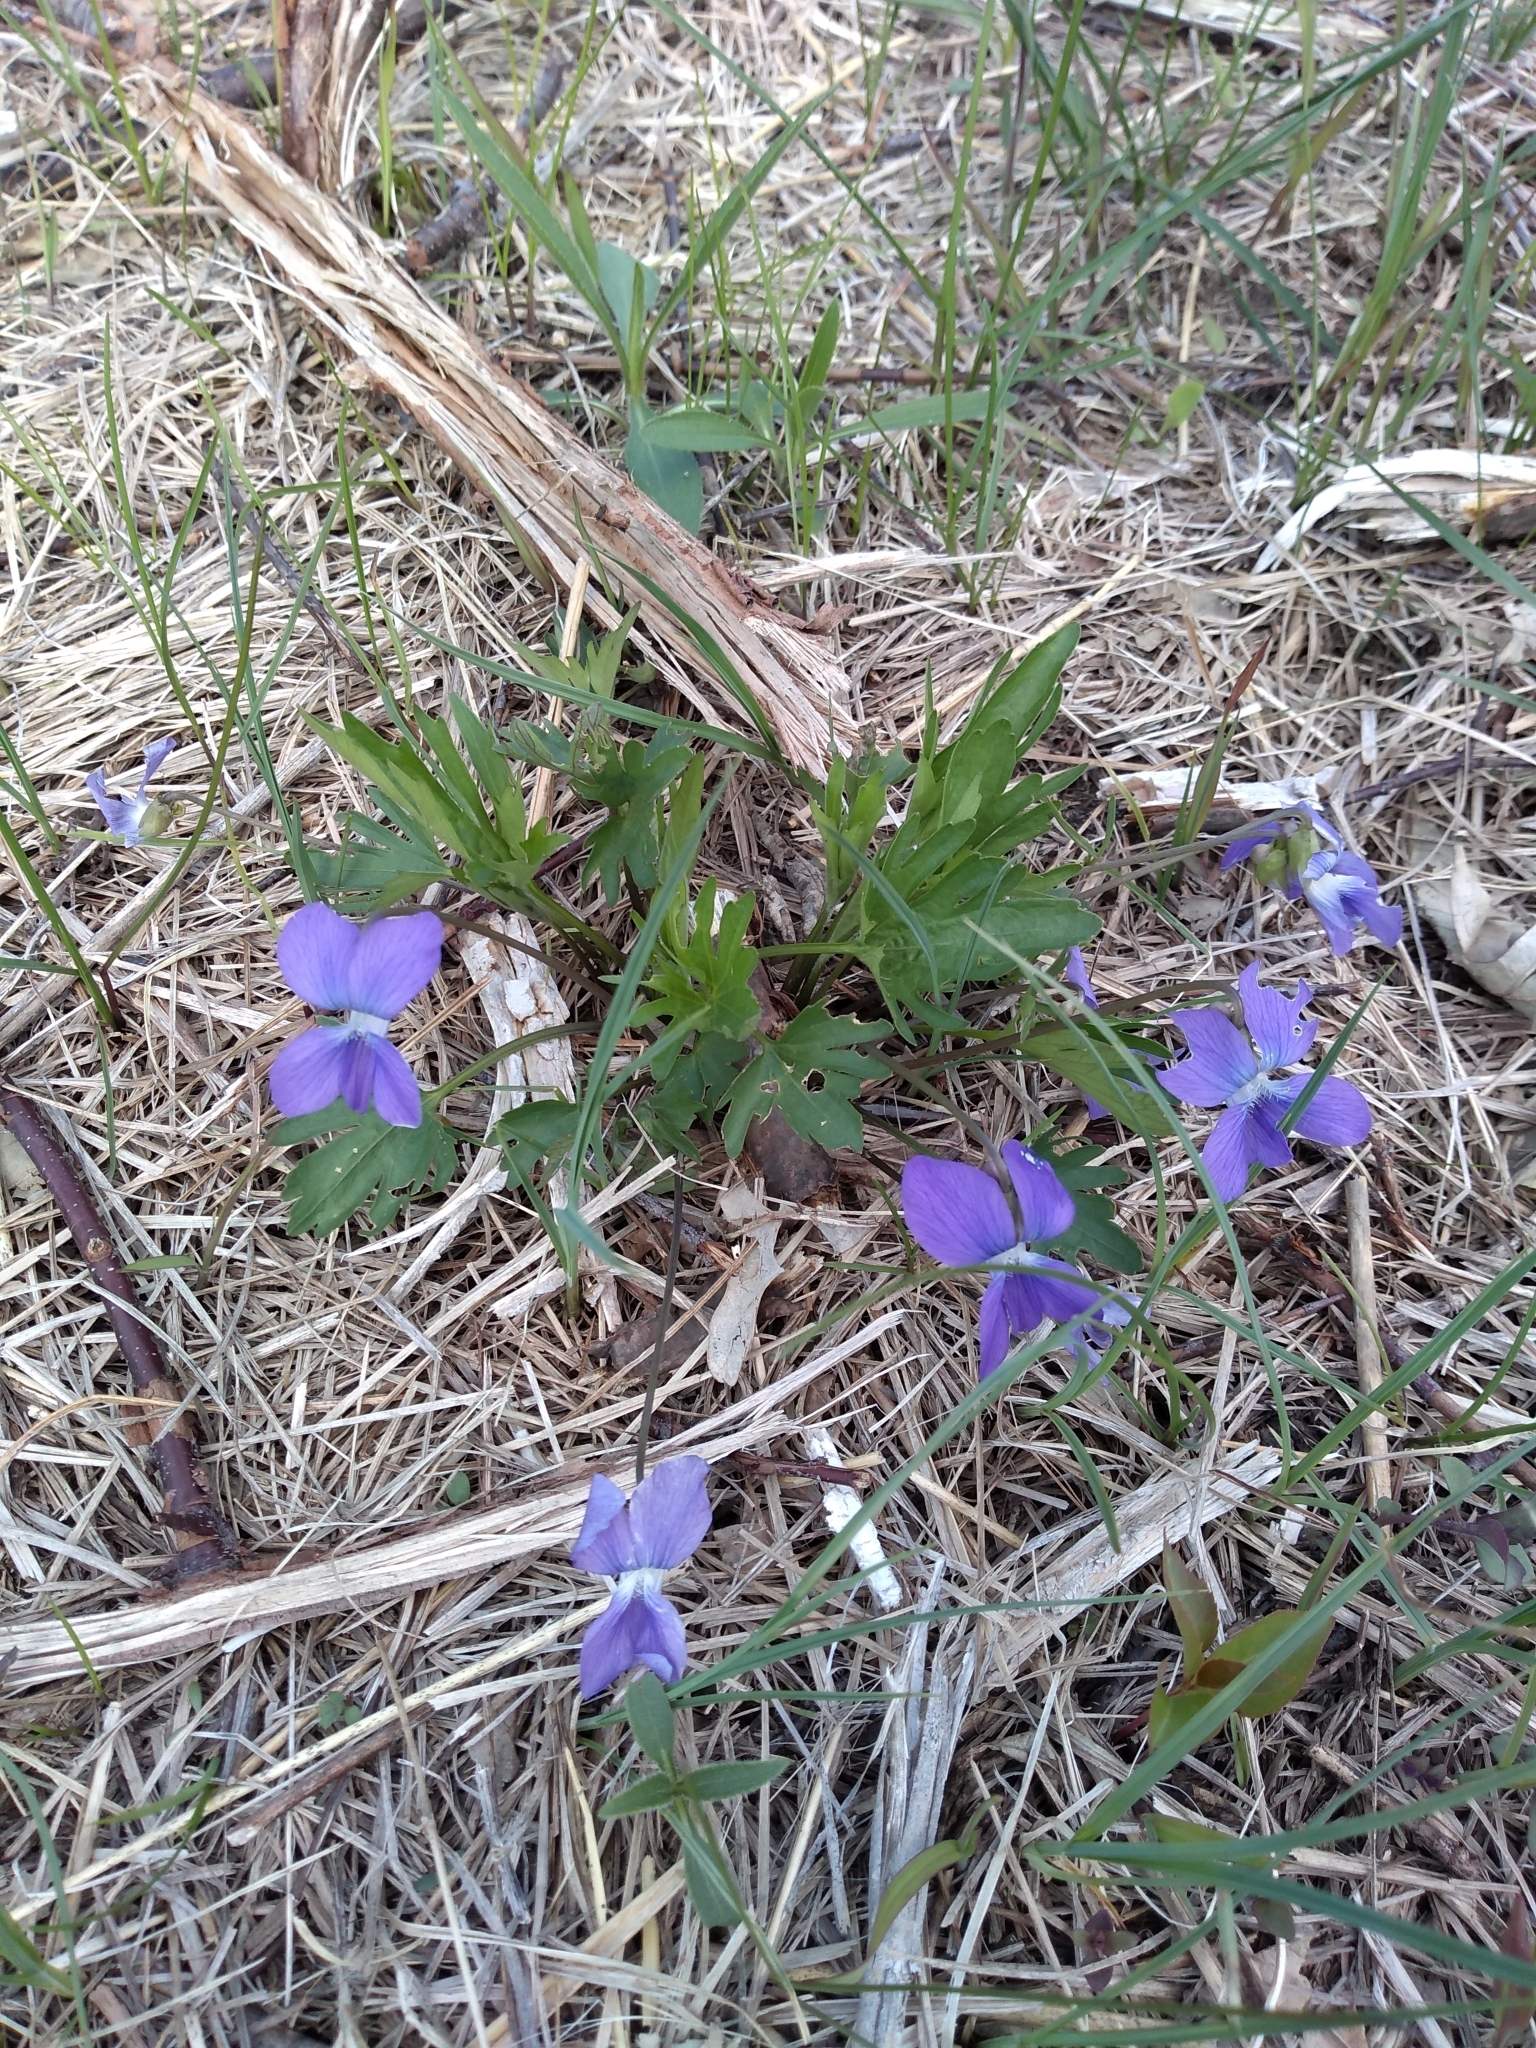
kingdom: Plantae
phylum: Tracheophyta
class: Magnoliopsida
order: Malpighiales
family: Violaceae
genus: Viola
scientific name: Viola pedatifida
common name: Prairie violet
